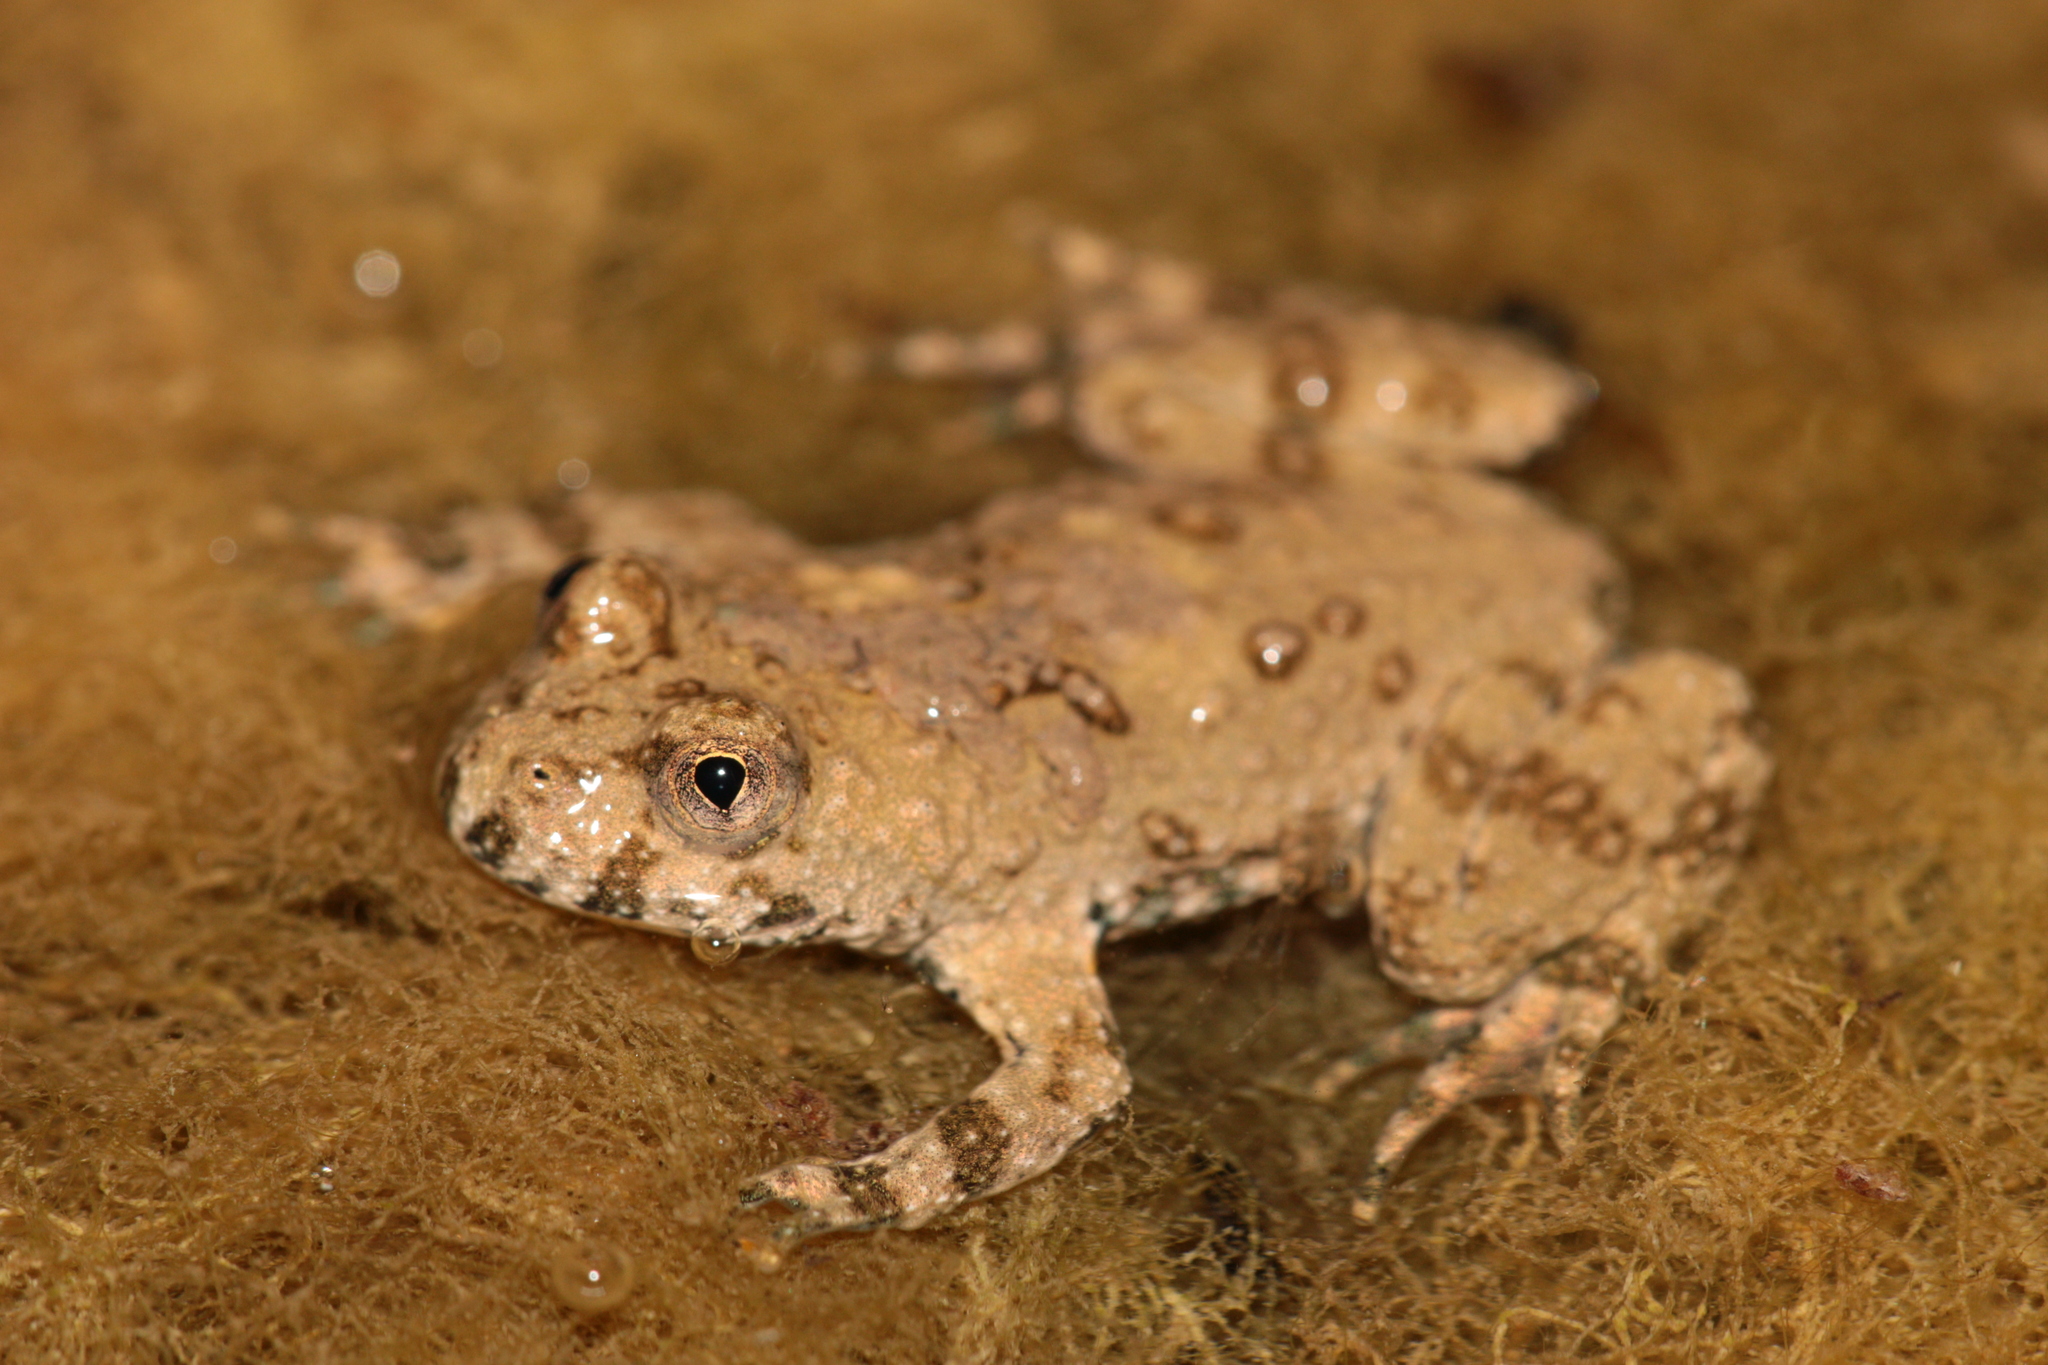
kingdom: Animalia
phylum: Chordata
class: Amphibia
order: Anura
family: Bombinatoridae
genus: Bombina
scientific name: Bombina variegata
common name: Yellow-bellied toad
